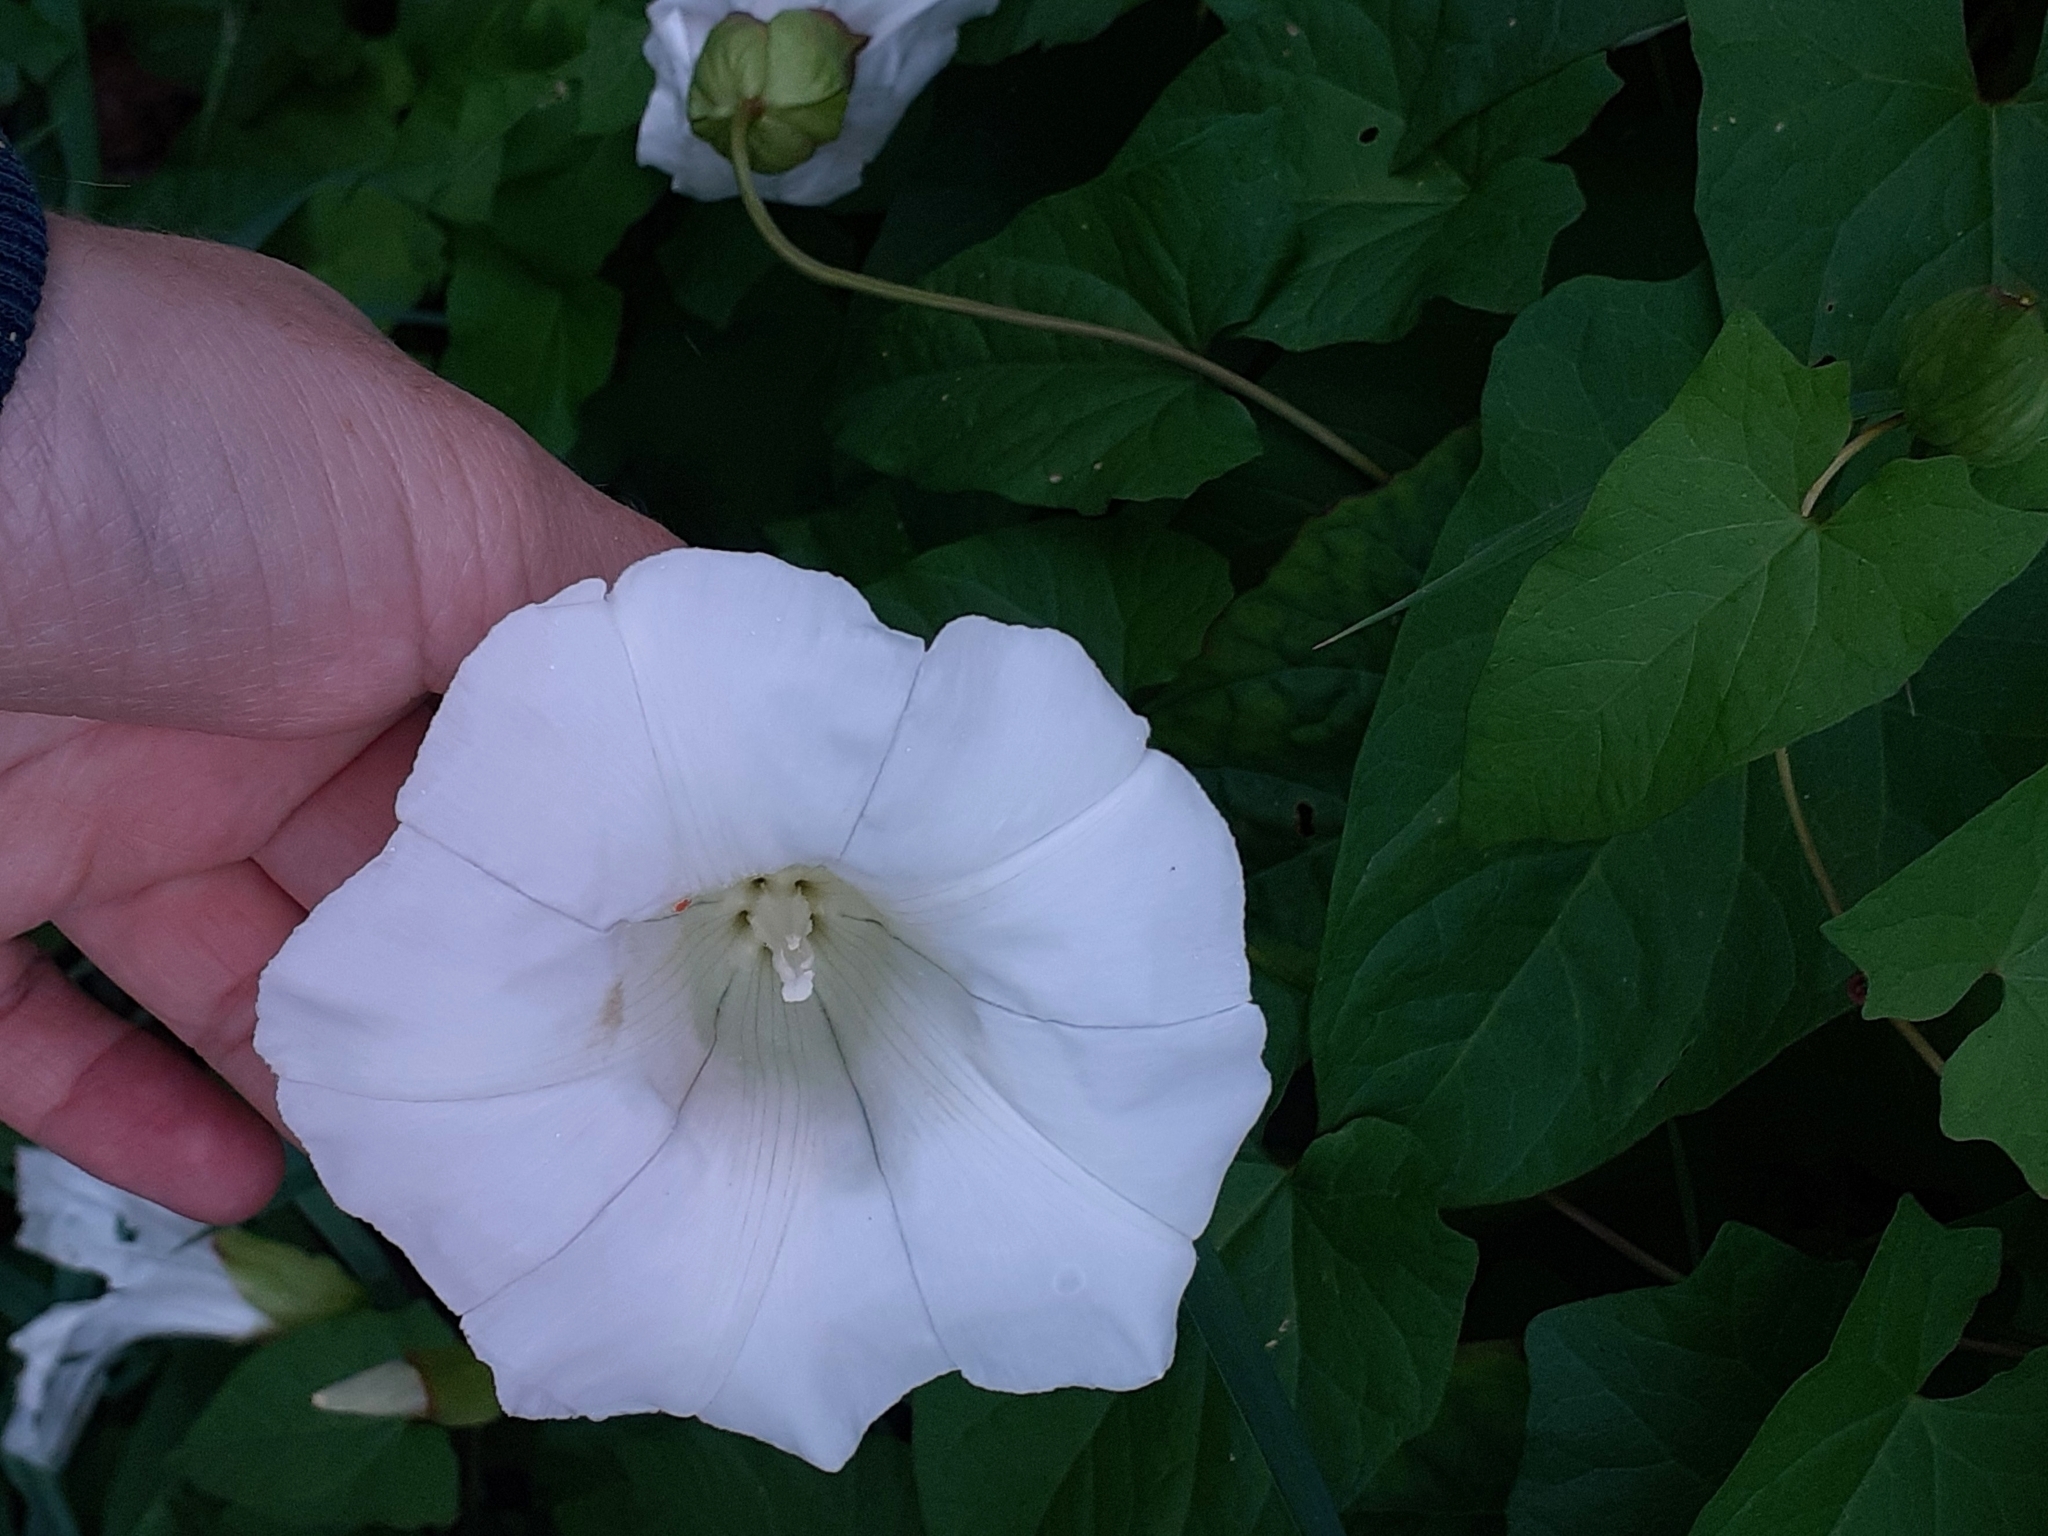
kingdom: Plantae
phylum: Tracheophyta
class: Magnoliopsida
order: Solanales
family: Convolvulaceae
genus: Calystegia
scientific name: Calystegia silvatica
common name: Large bindweed
